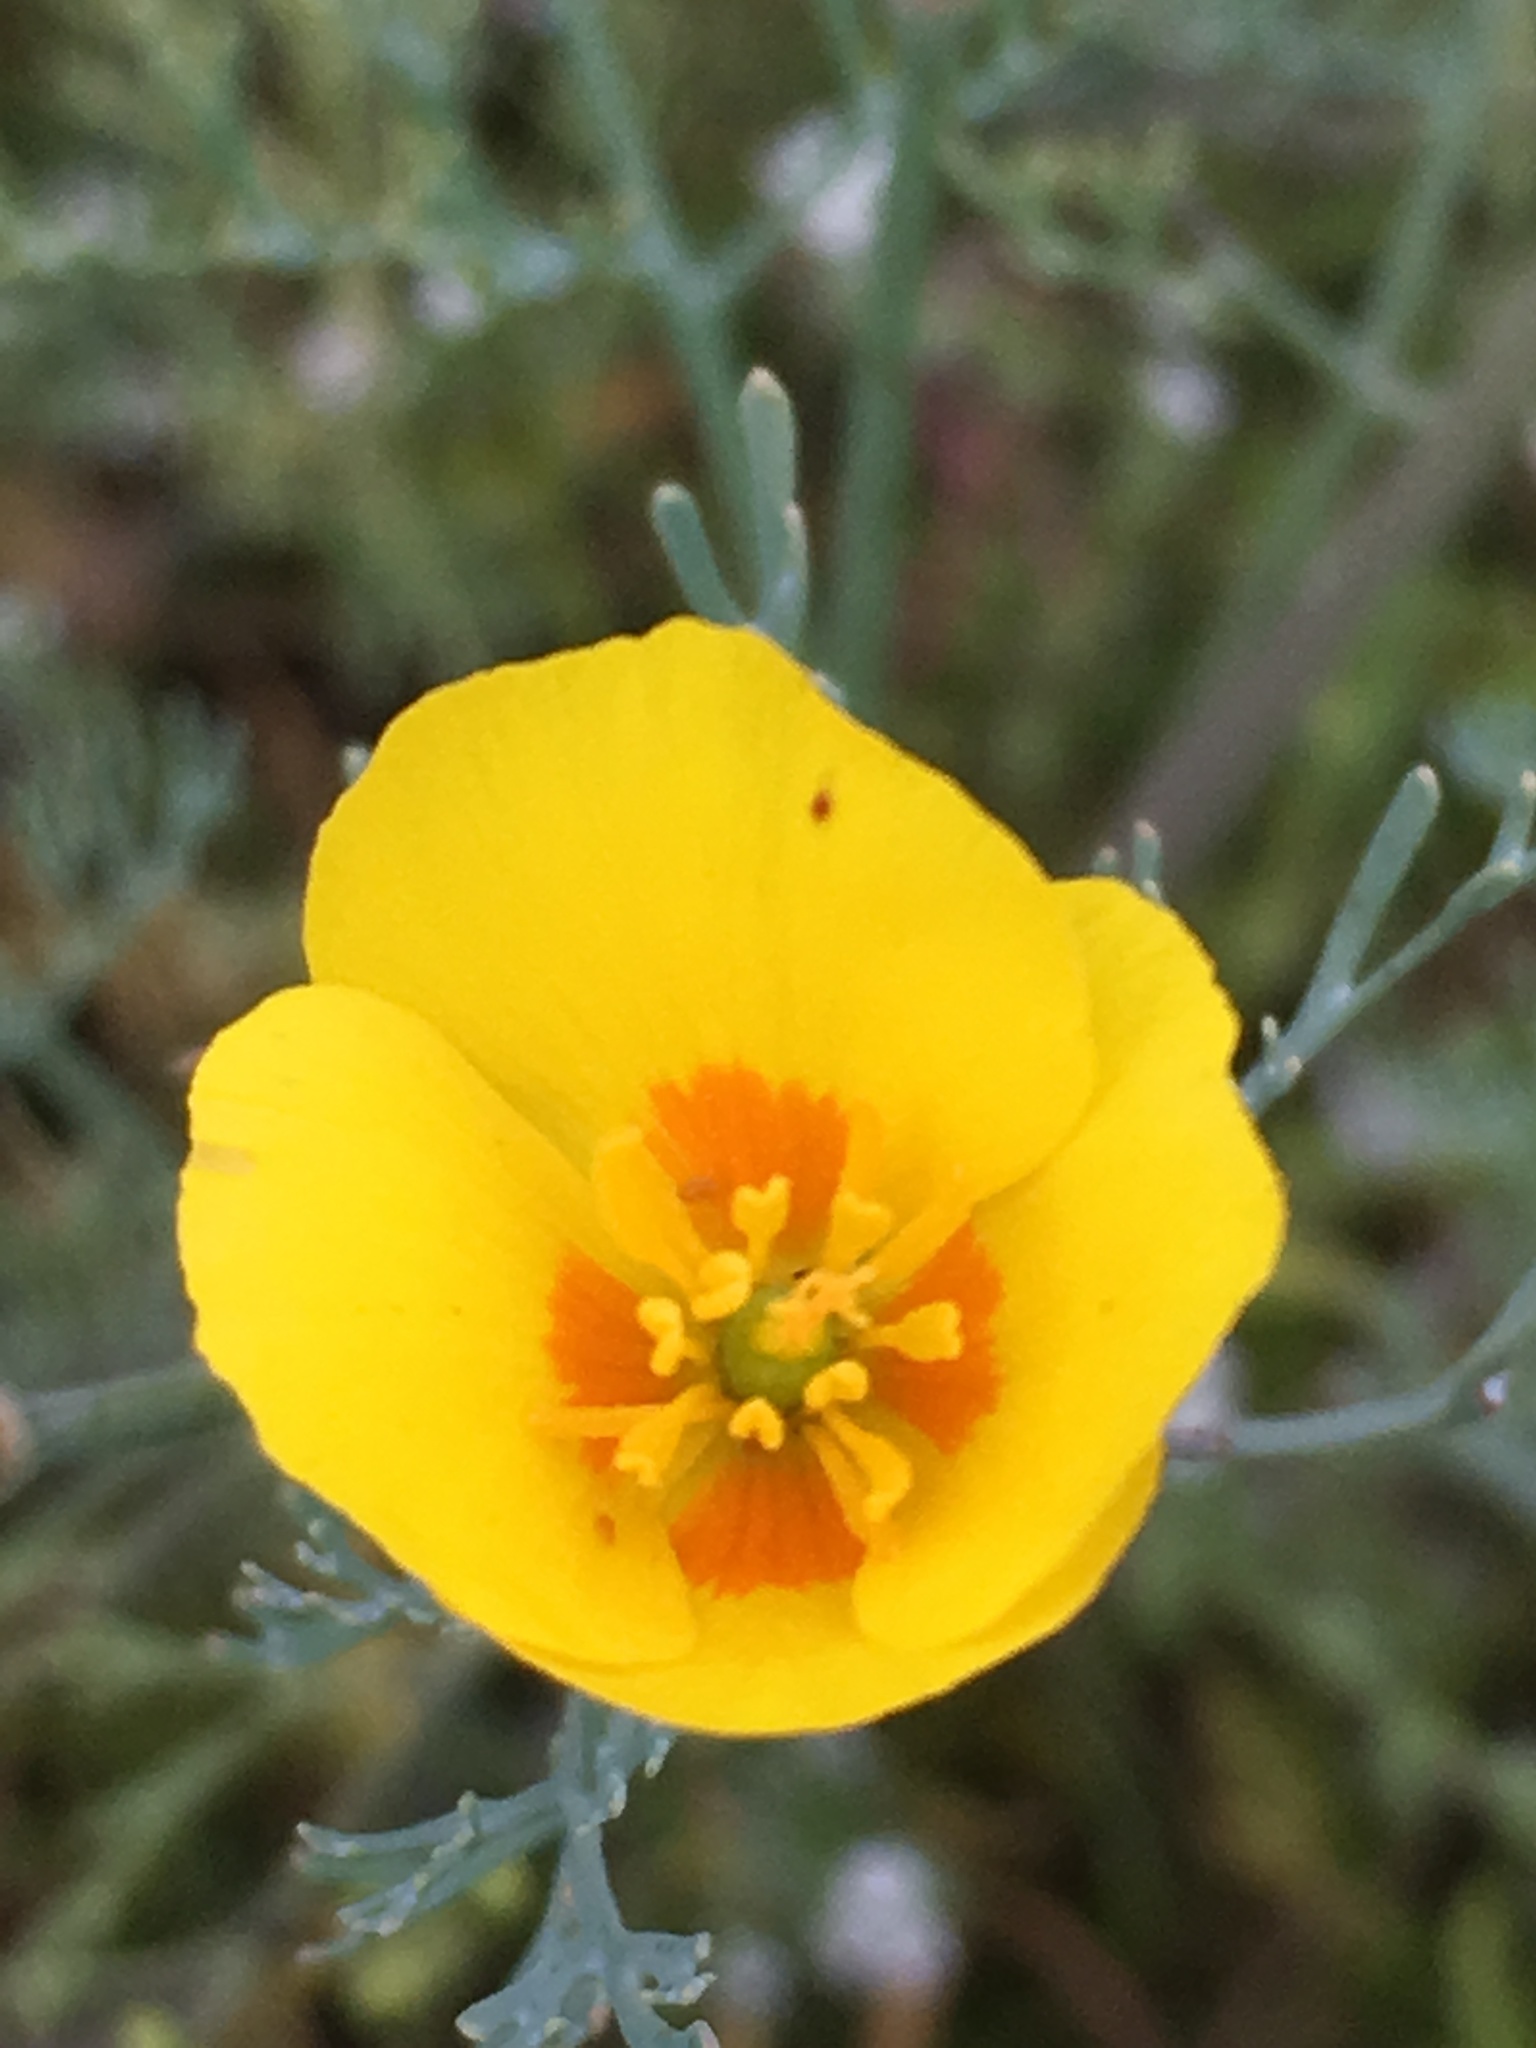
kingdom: Plantae
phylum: Tracheophyta
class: Magnoliopsida
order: Ranunculales
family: Papaveraceae
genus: Eschscholzia
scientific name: Eschscholzia ramosa
